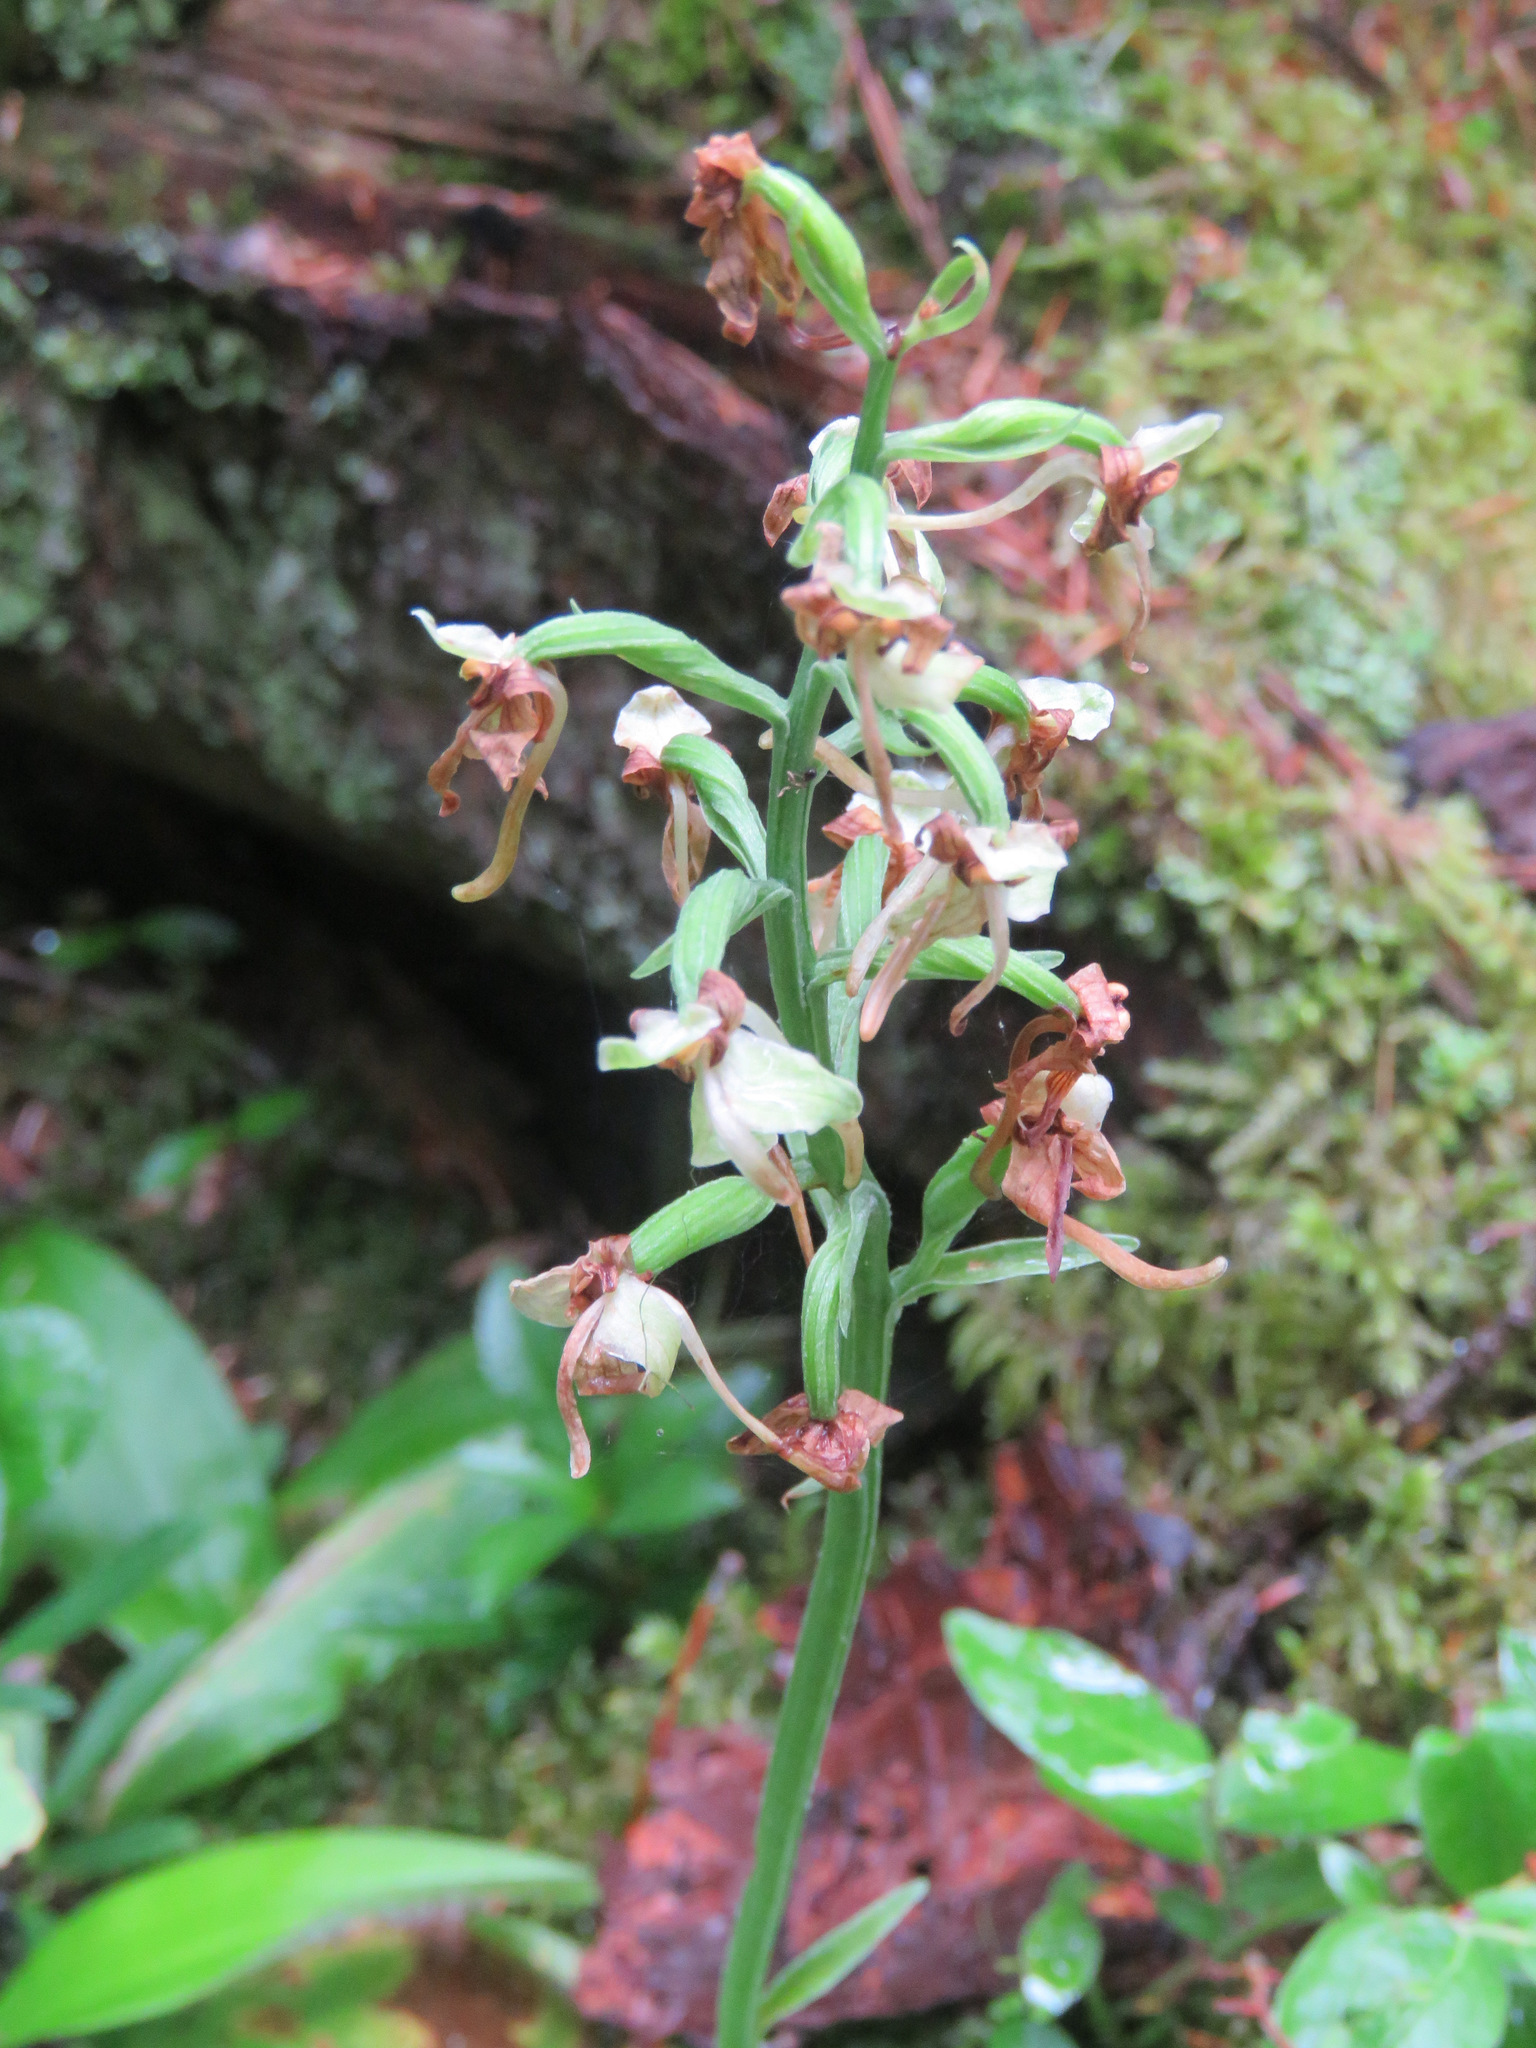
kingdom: Plantae
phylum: Tracheophyta
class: Liliopsida
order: Asparagales
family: Orchidaceae
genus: Platanthera
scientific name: Platanthera orbiculata
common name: Large round-leaved orchid
